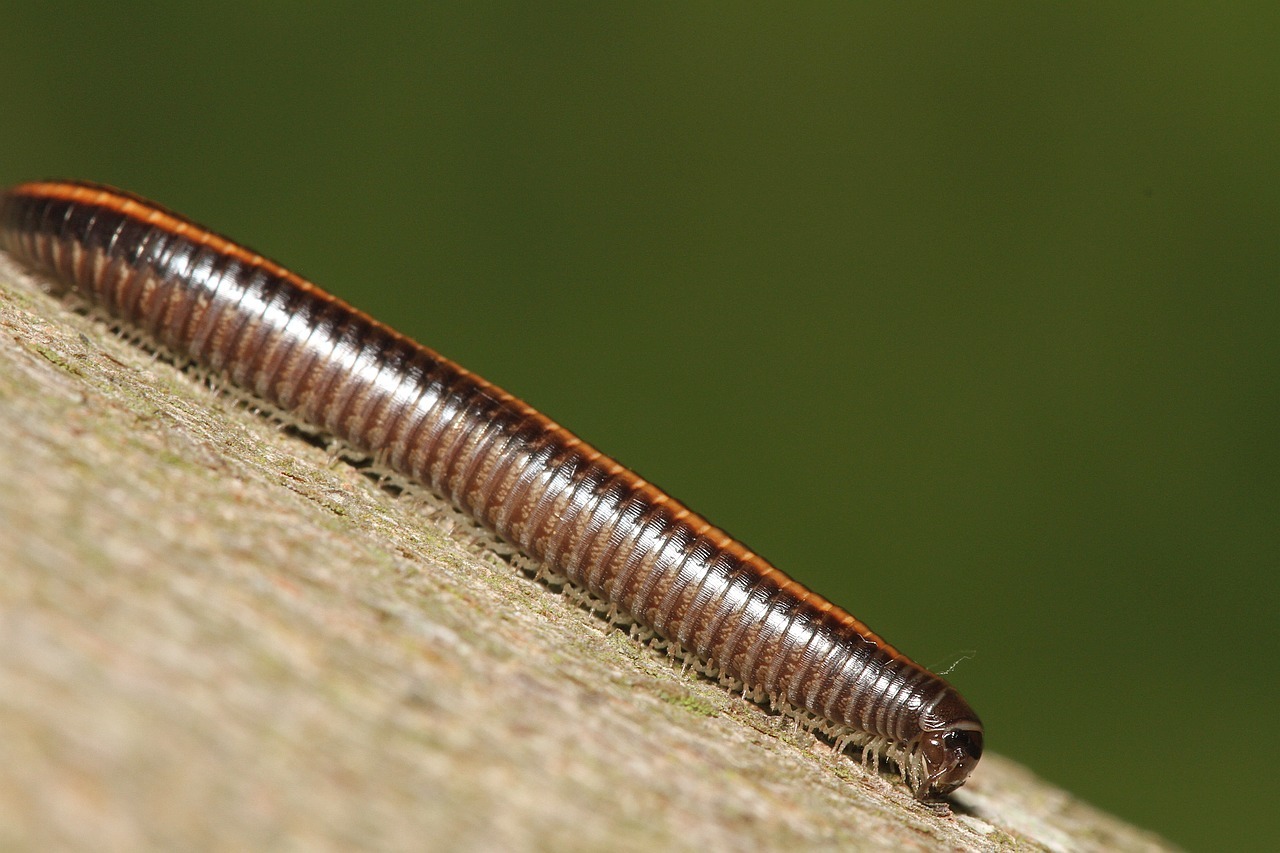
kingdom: Animalia
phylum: Arthropoda
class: Diplopoda
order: Julida
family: Julidae
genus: Ommatoiulus
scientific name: Ommatoiulus sabulosus
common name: Striped millipede
